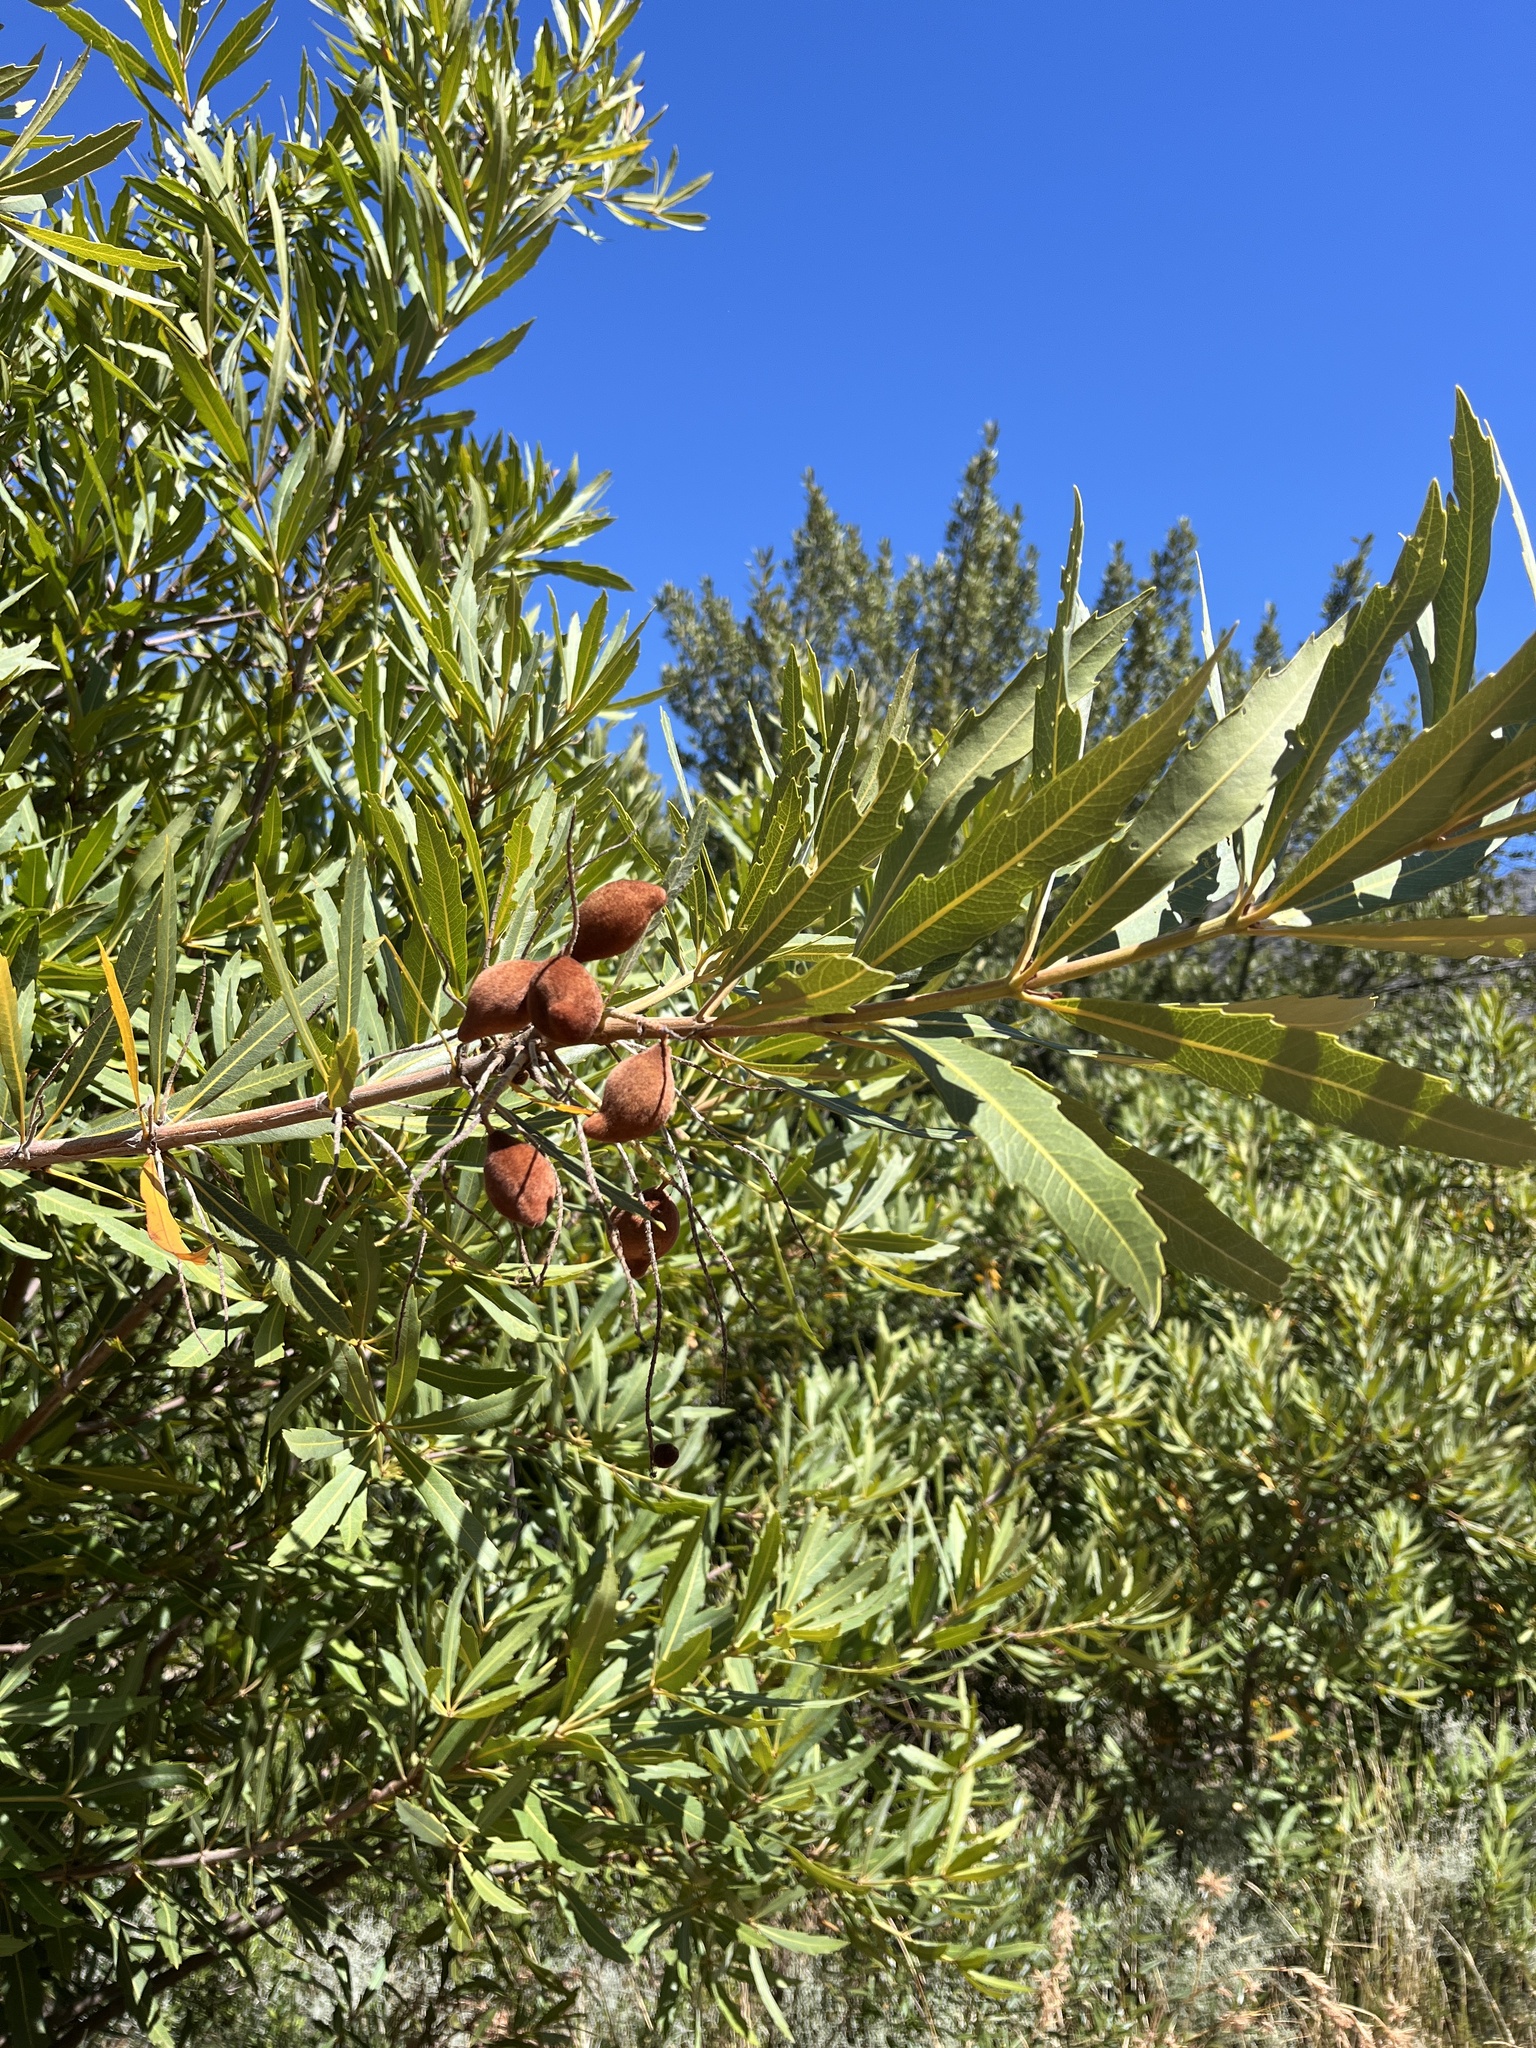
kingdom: Plantae
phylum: Tracheophyta
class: Magnoliopsida
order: Proteales
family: Proteaceae
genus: Brabejum
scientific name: Brabejum stellatifolium
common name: Wild almond
